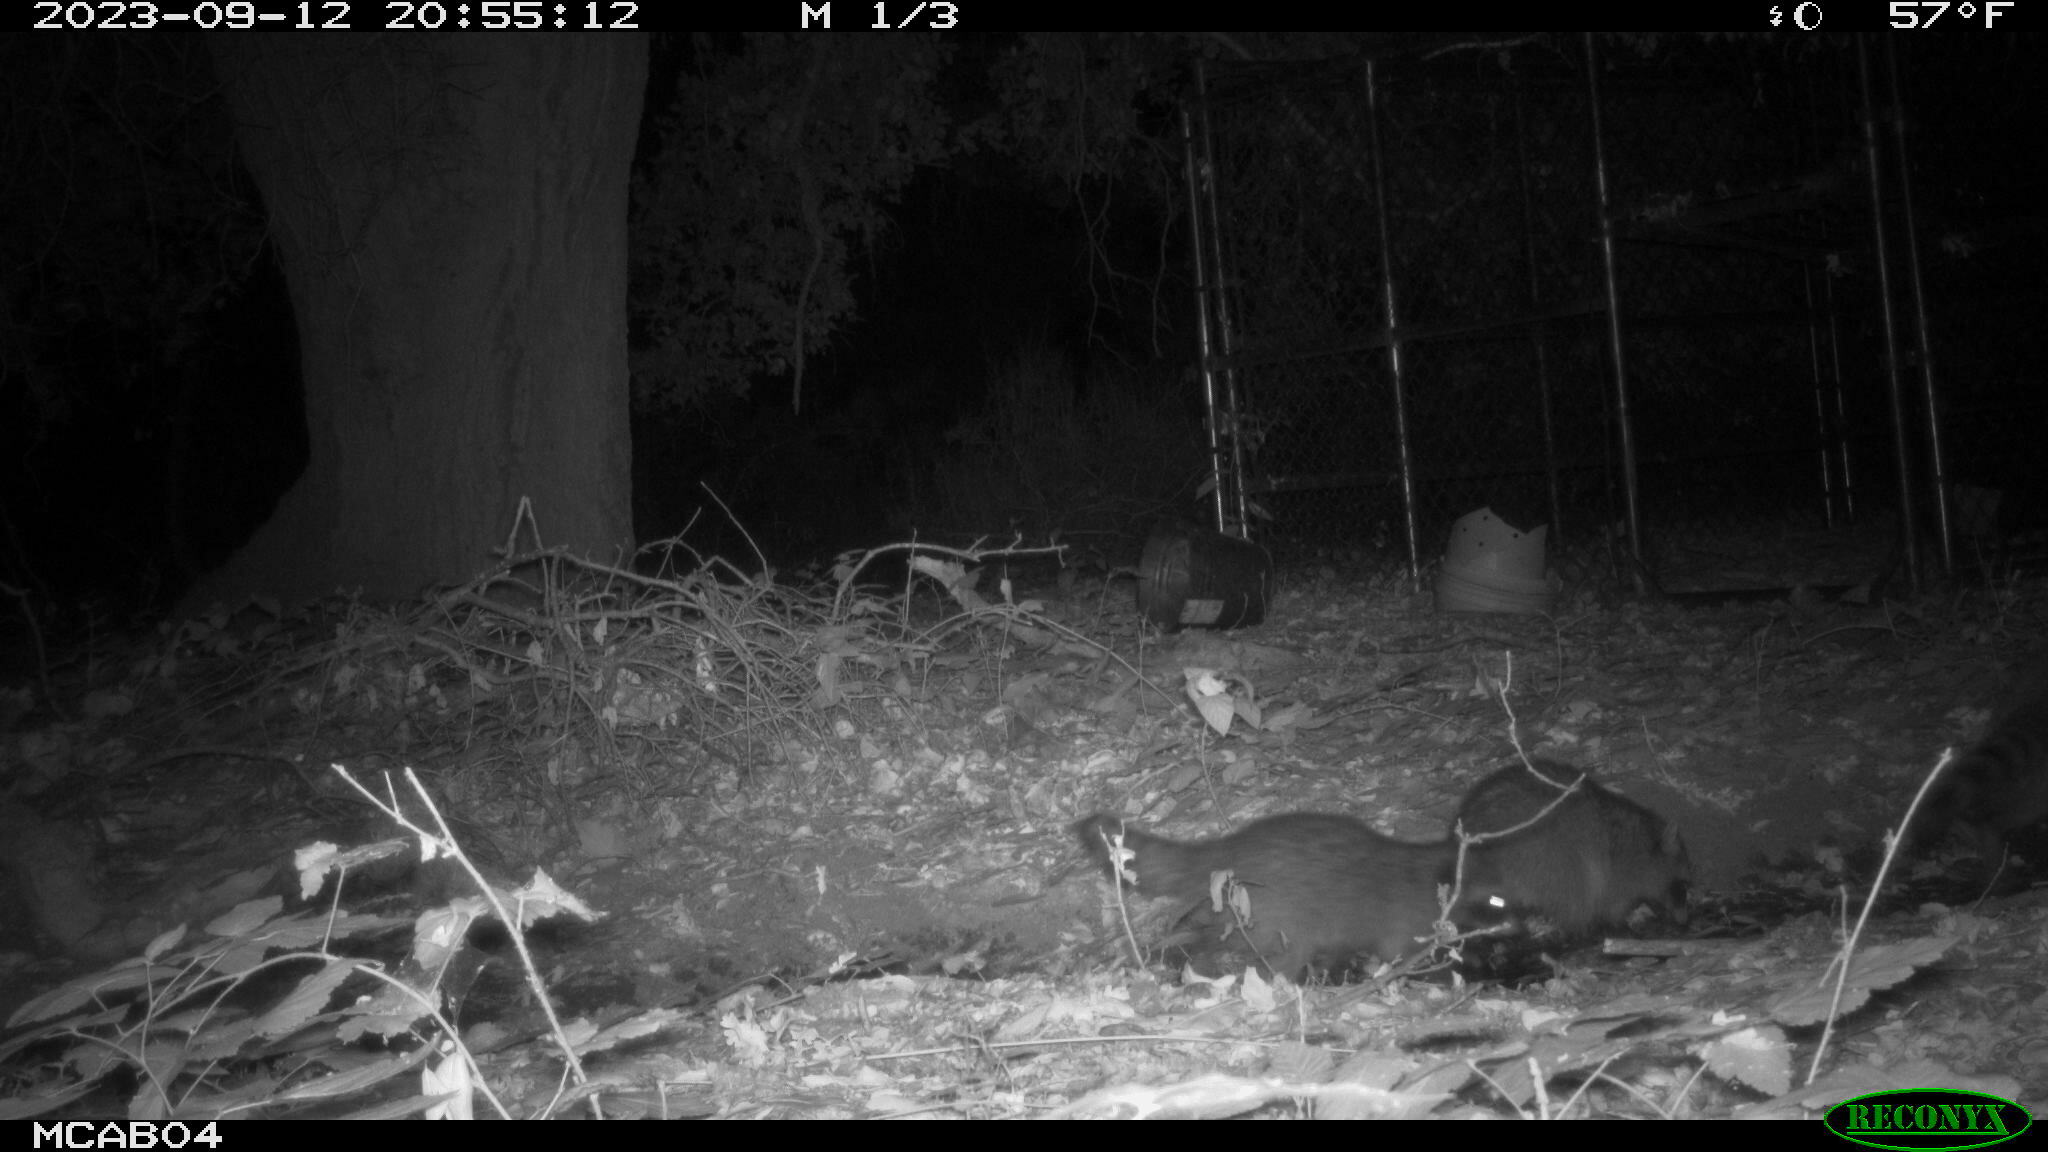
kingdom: Animalia
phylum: Chordata
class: Mammalia
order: Carnivora
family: Procyonidae
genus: Procyon
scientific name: Procyon lotor
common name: Raccoon
